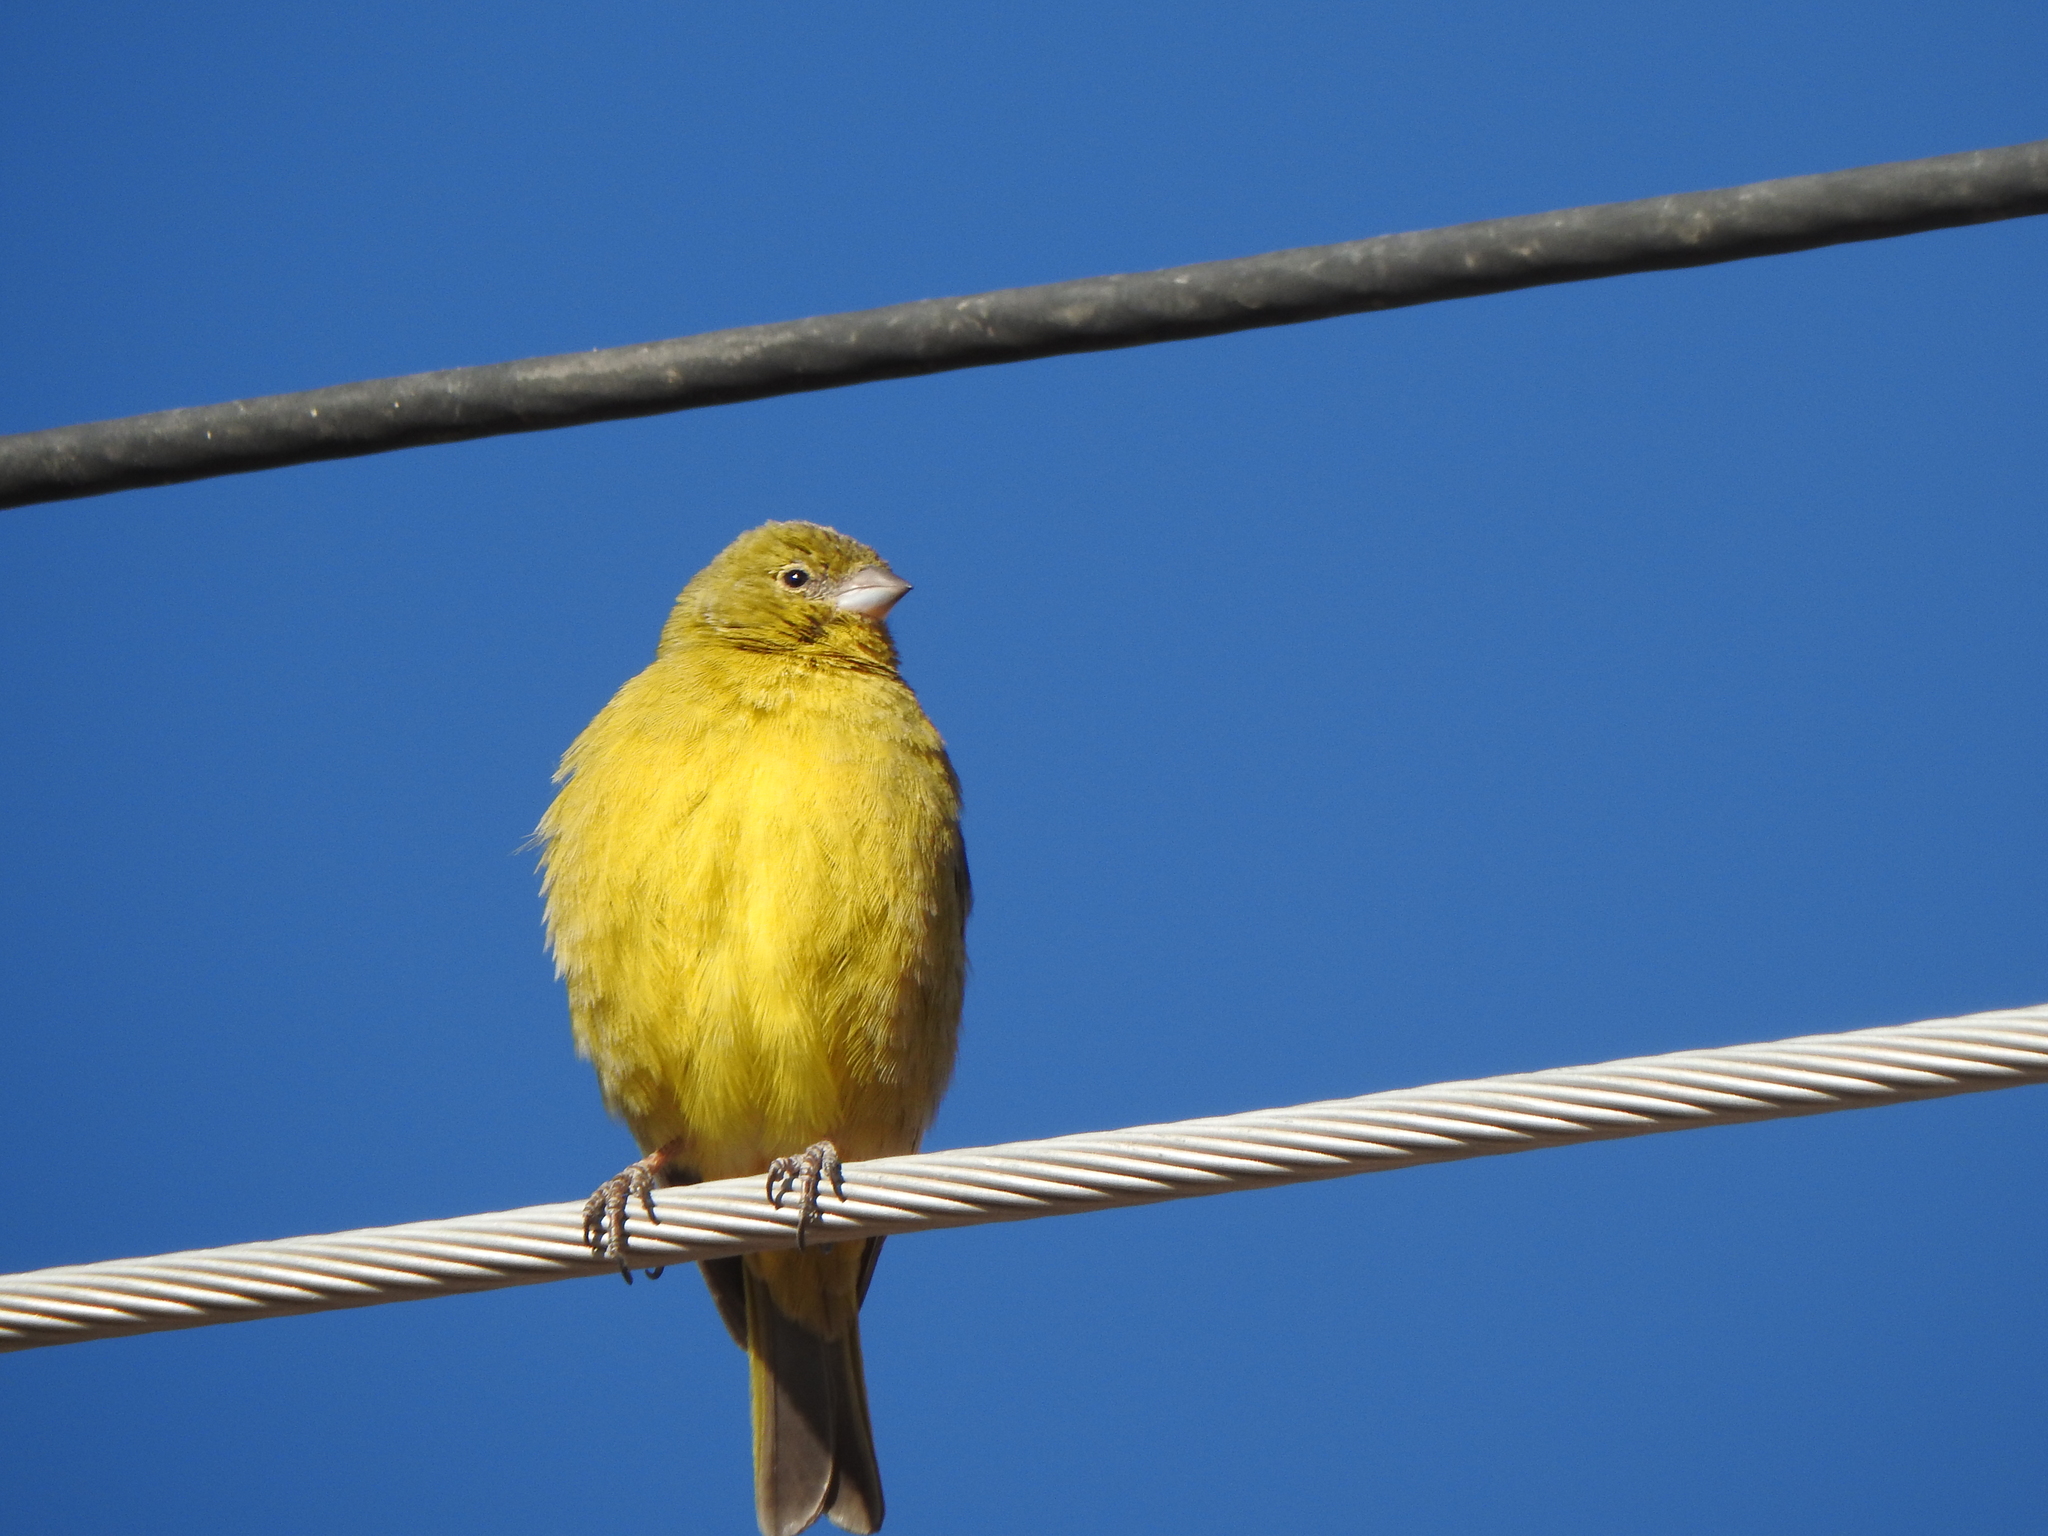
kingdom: Animalia
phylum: Chordata
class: Aves
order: Passeriformes
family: Thraupidae
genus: Sicalis
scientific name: Sicalis olivascens
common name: Greenish yellow finch
